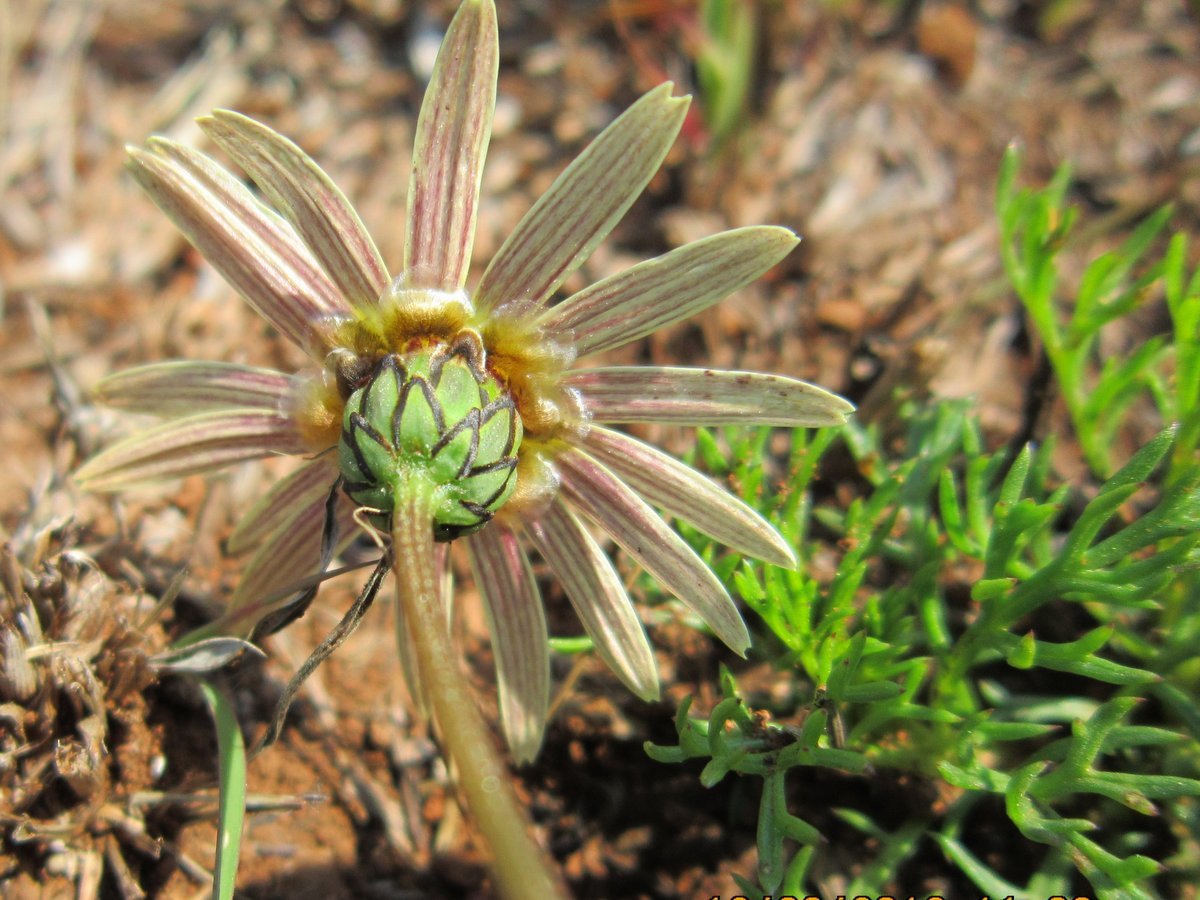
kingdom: Plantae
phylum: Tracheophyta
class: Magnoliopsida
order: Asterales
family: Asteraceae
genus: Ursinia
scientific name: Ursinia tenuiloba
